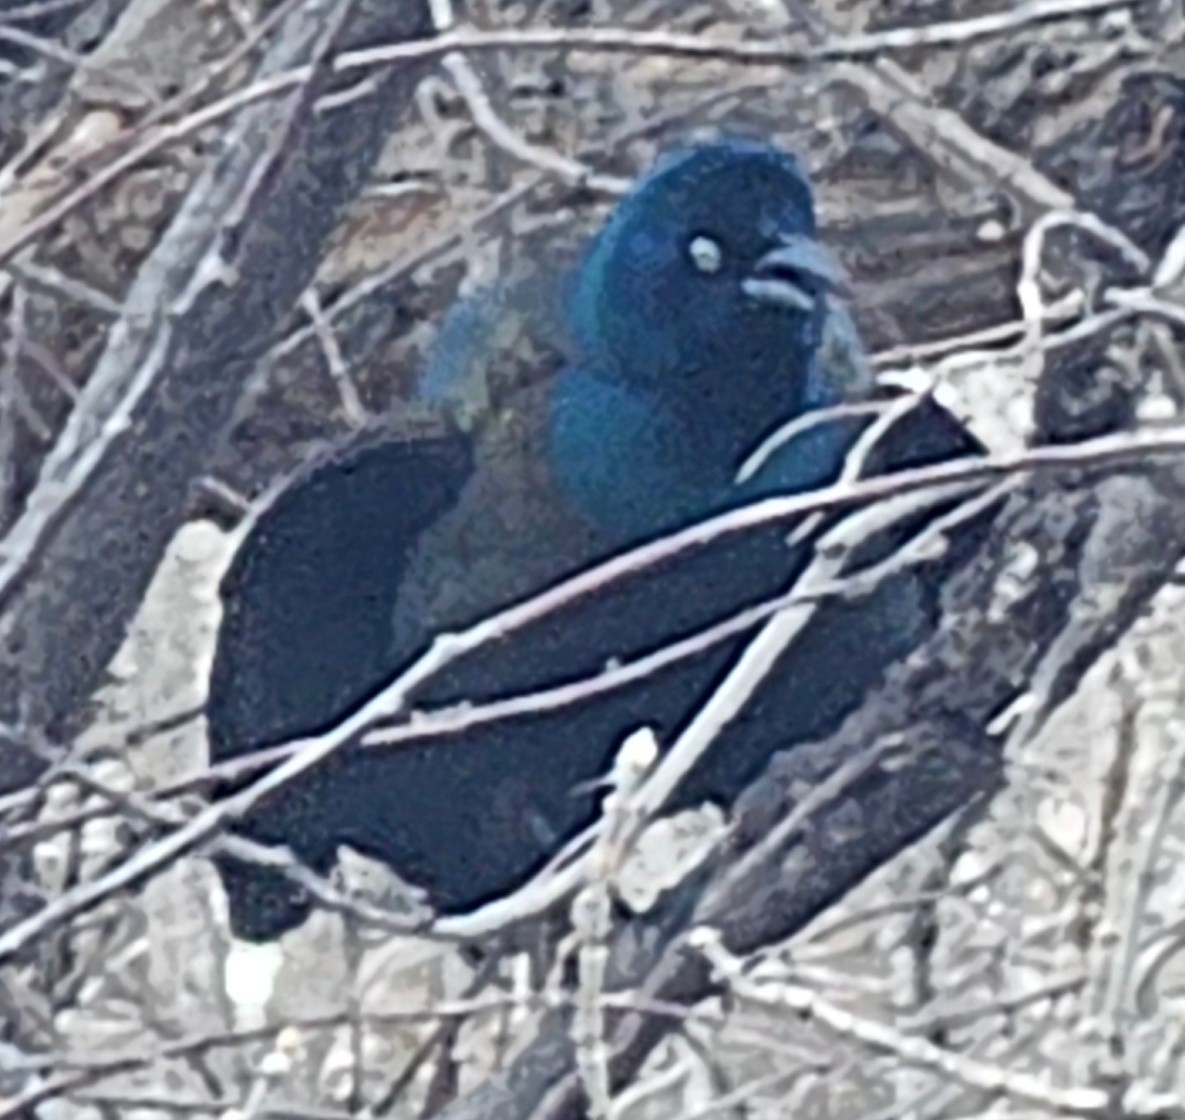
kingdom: Animalia
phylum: Chordata
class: Aves
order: Passeriformes
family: Icteridae
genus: Quiscalus
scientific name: Quiscalus quiscula
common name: Common grackle
